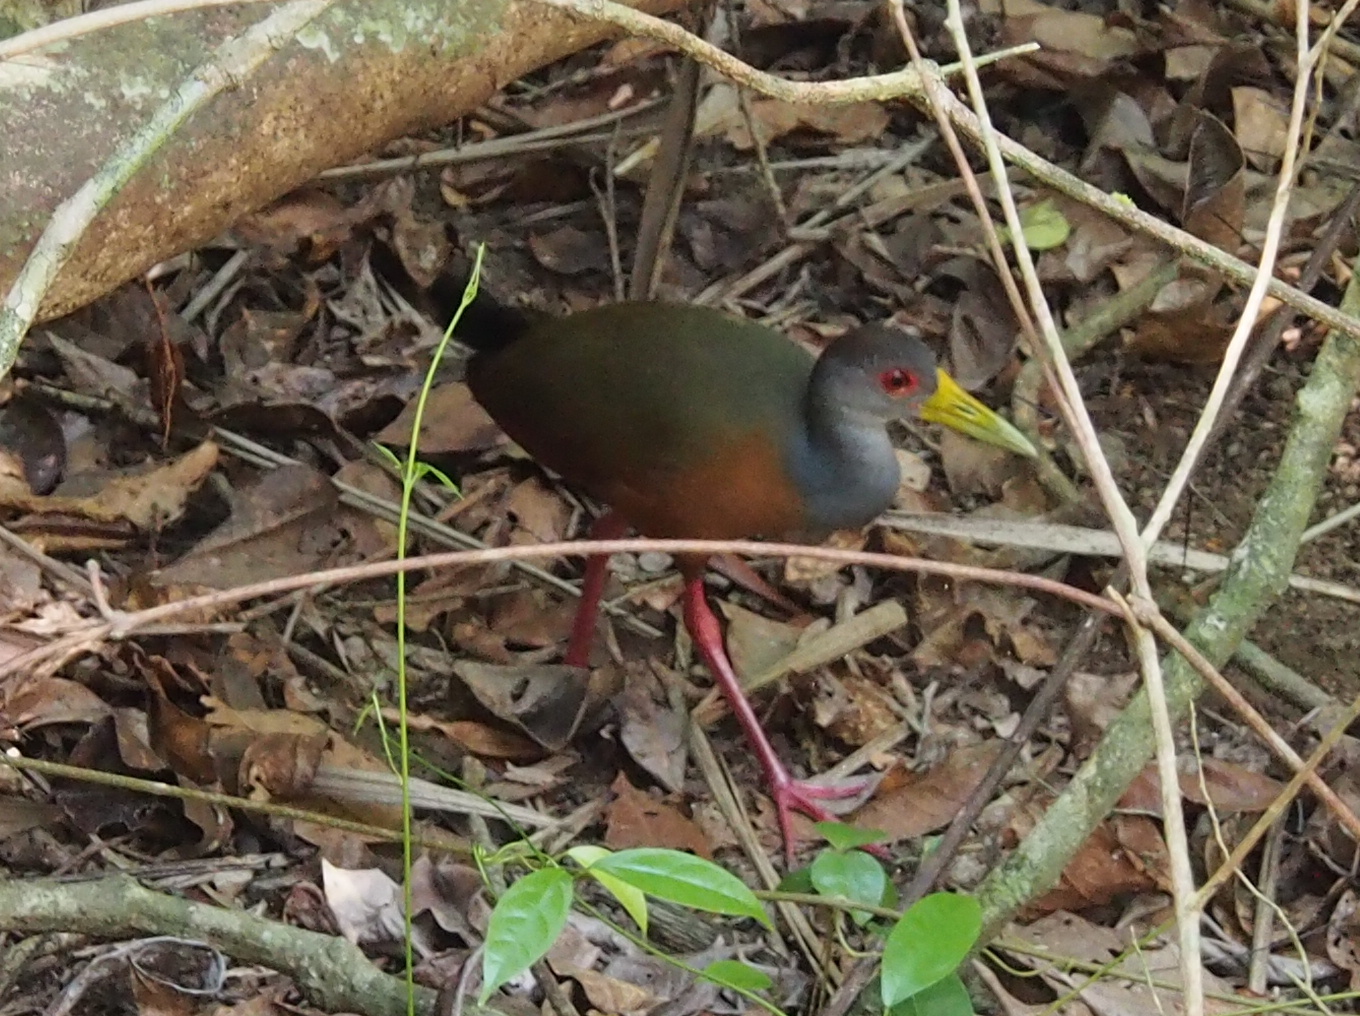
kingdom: Animalia
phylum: Chordata
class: Aves
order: Gruiformes
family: Rallidae
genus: Aramides
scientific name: Aramides cajanea
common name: Gray-necked wood-rail
